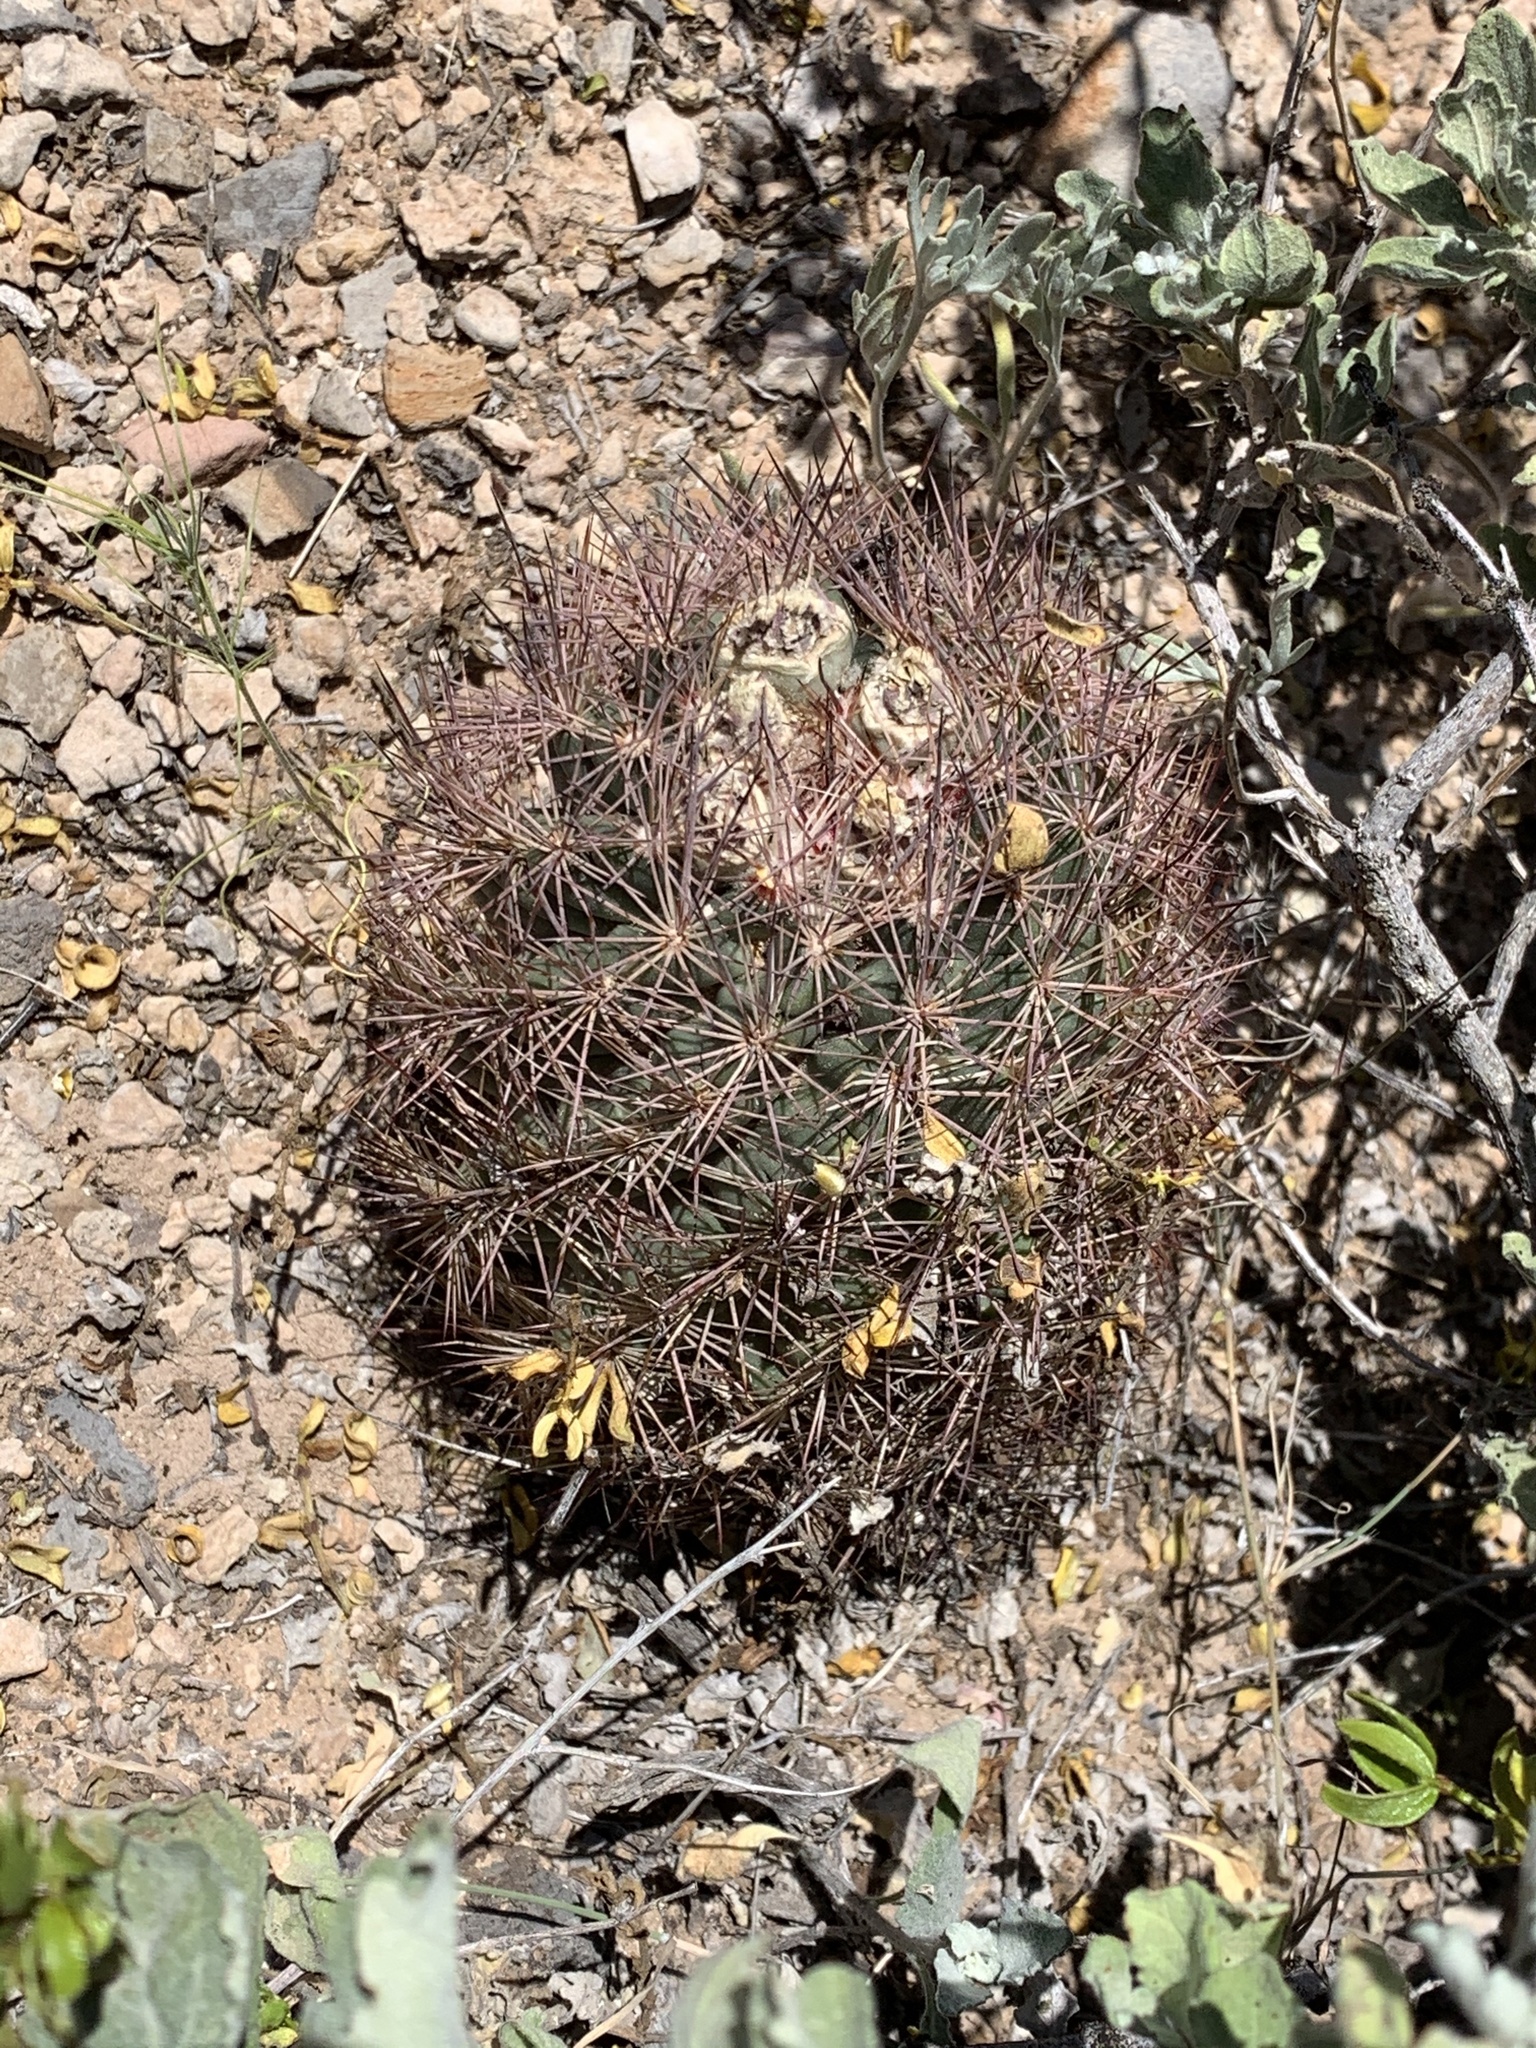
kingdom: Plantae
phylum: Tracheophyta
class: Magnoliopsida
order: Caryophyllales
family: Cactaceae
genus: Sclerocactus
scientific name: Sclerocactus intertextus
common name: White fish-hook cactus
